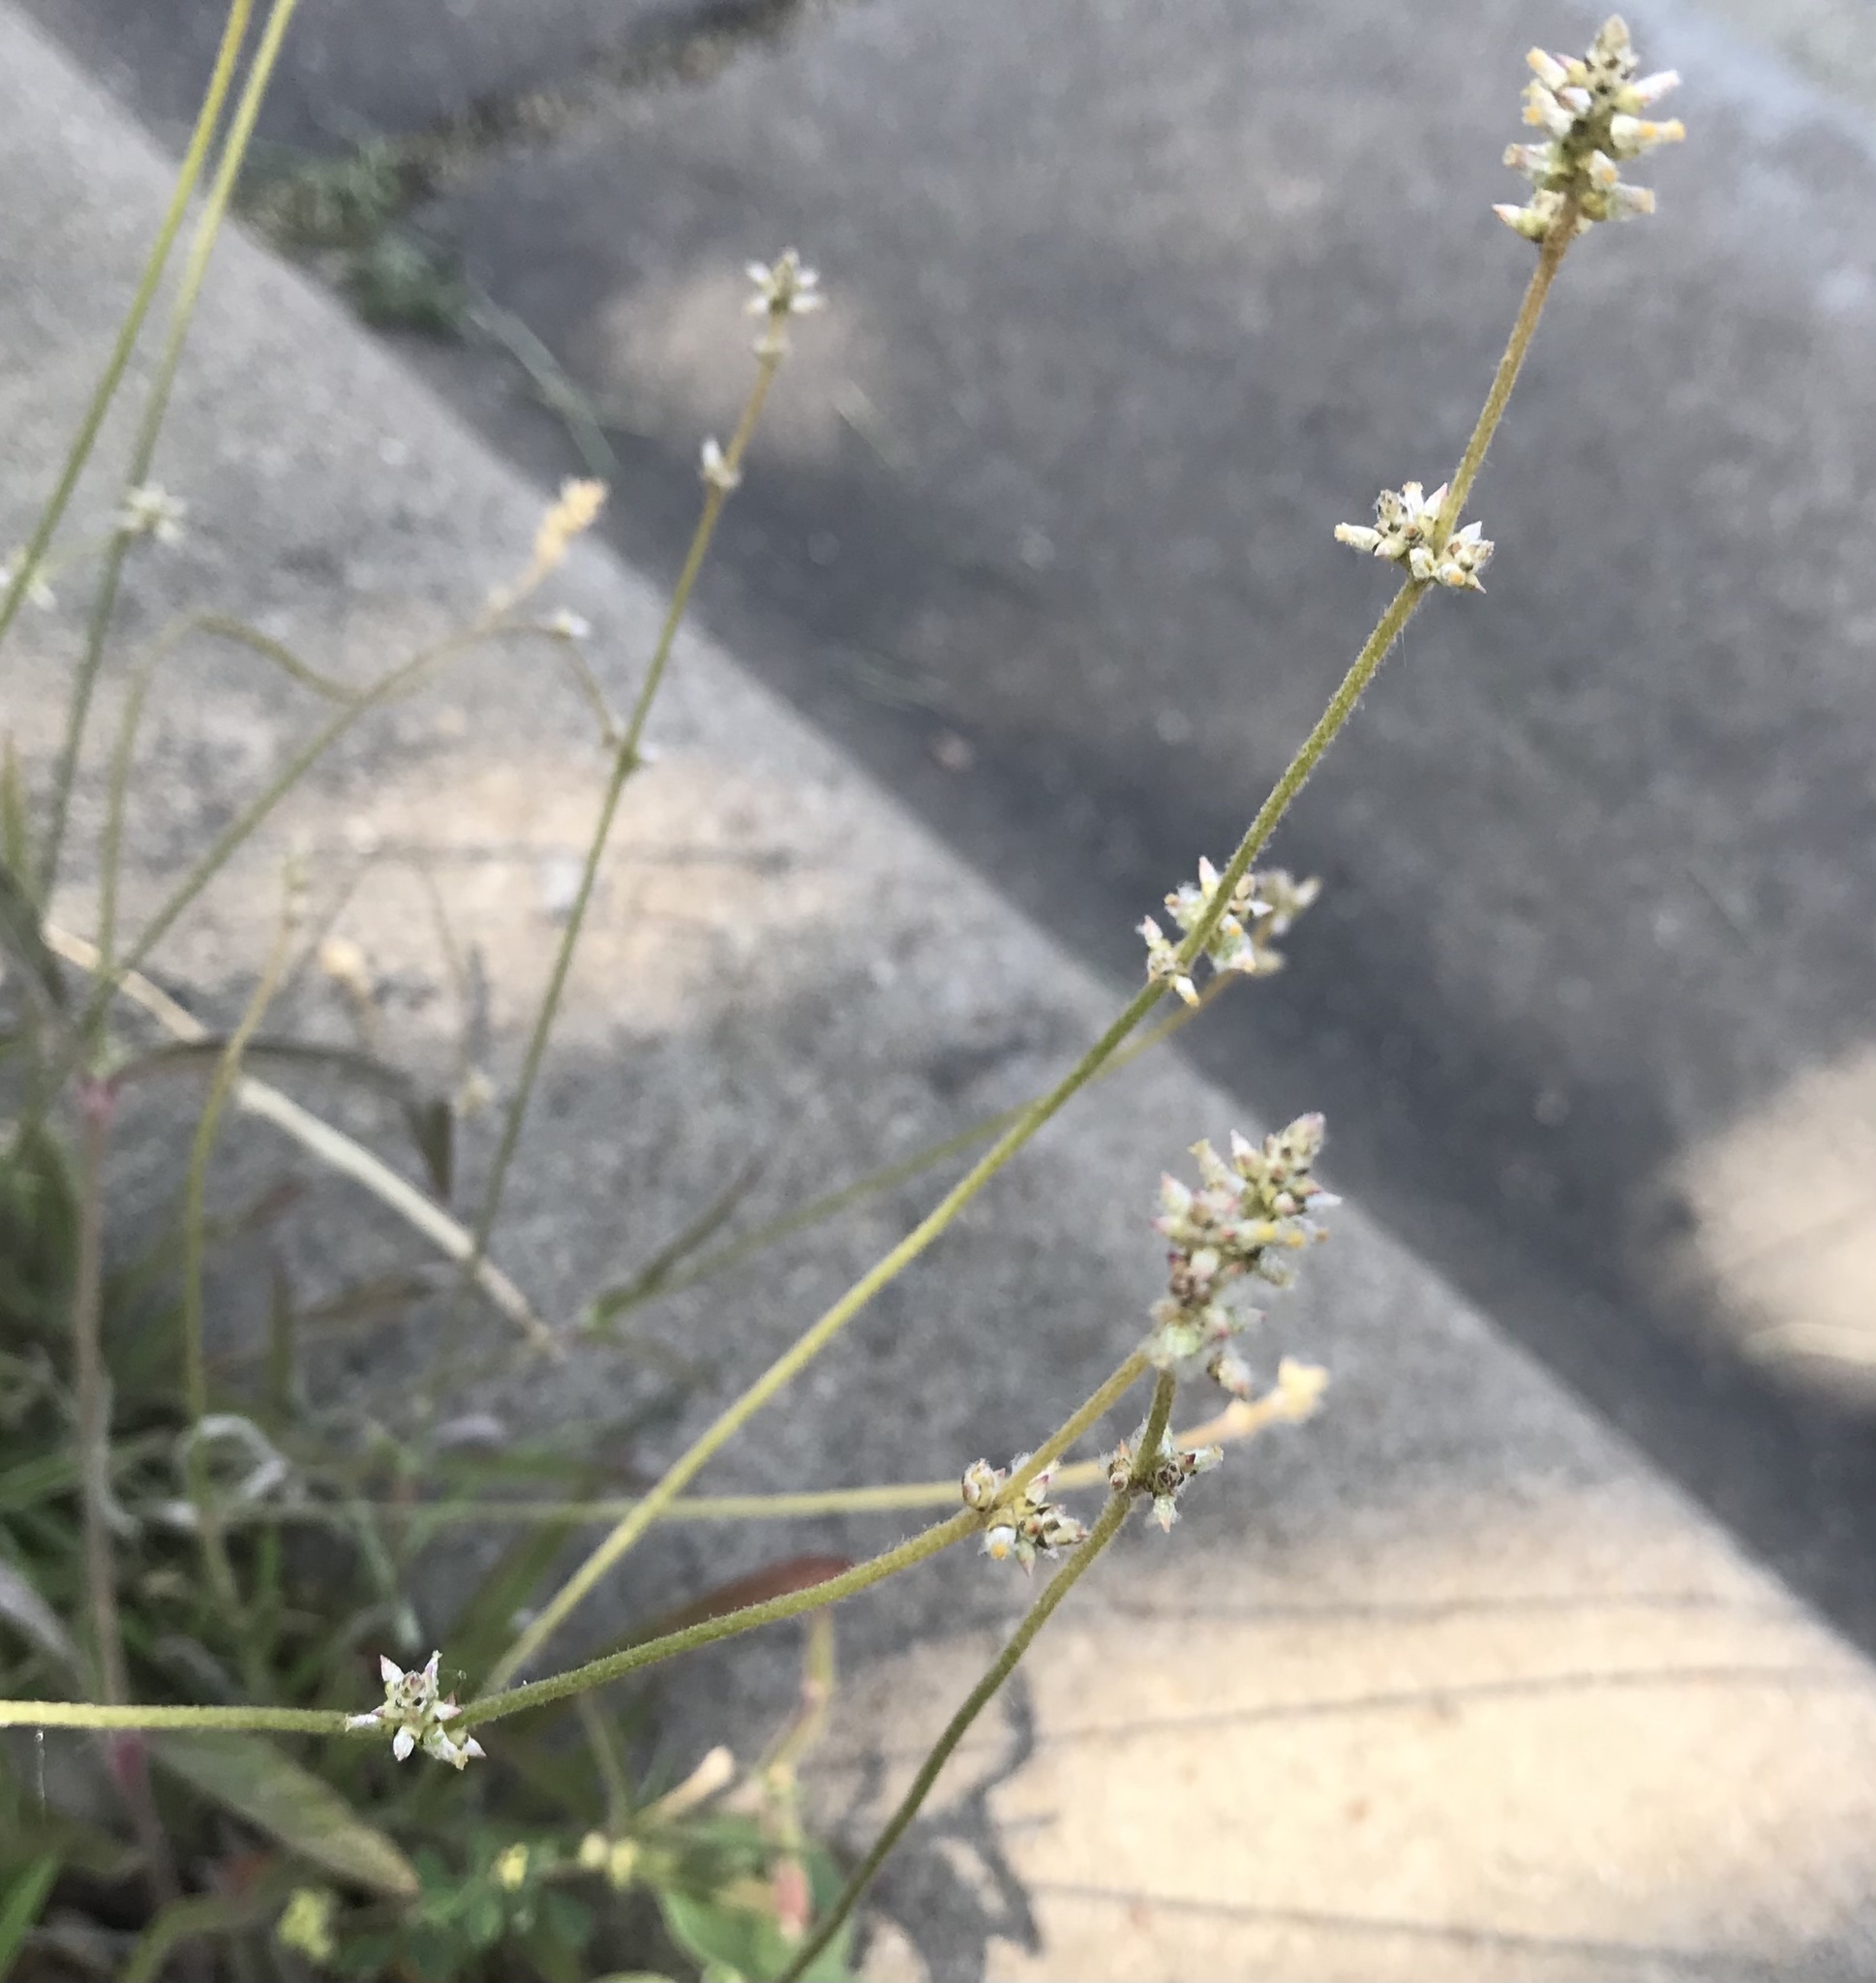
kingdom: Plantae
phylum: Tracheophyta
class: Magnoliopsida
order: Caryophyllales
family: Amaranthaceae
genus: Froelichia
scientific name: Froelichia gracilis
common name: Slender cottonweed
